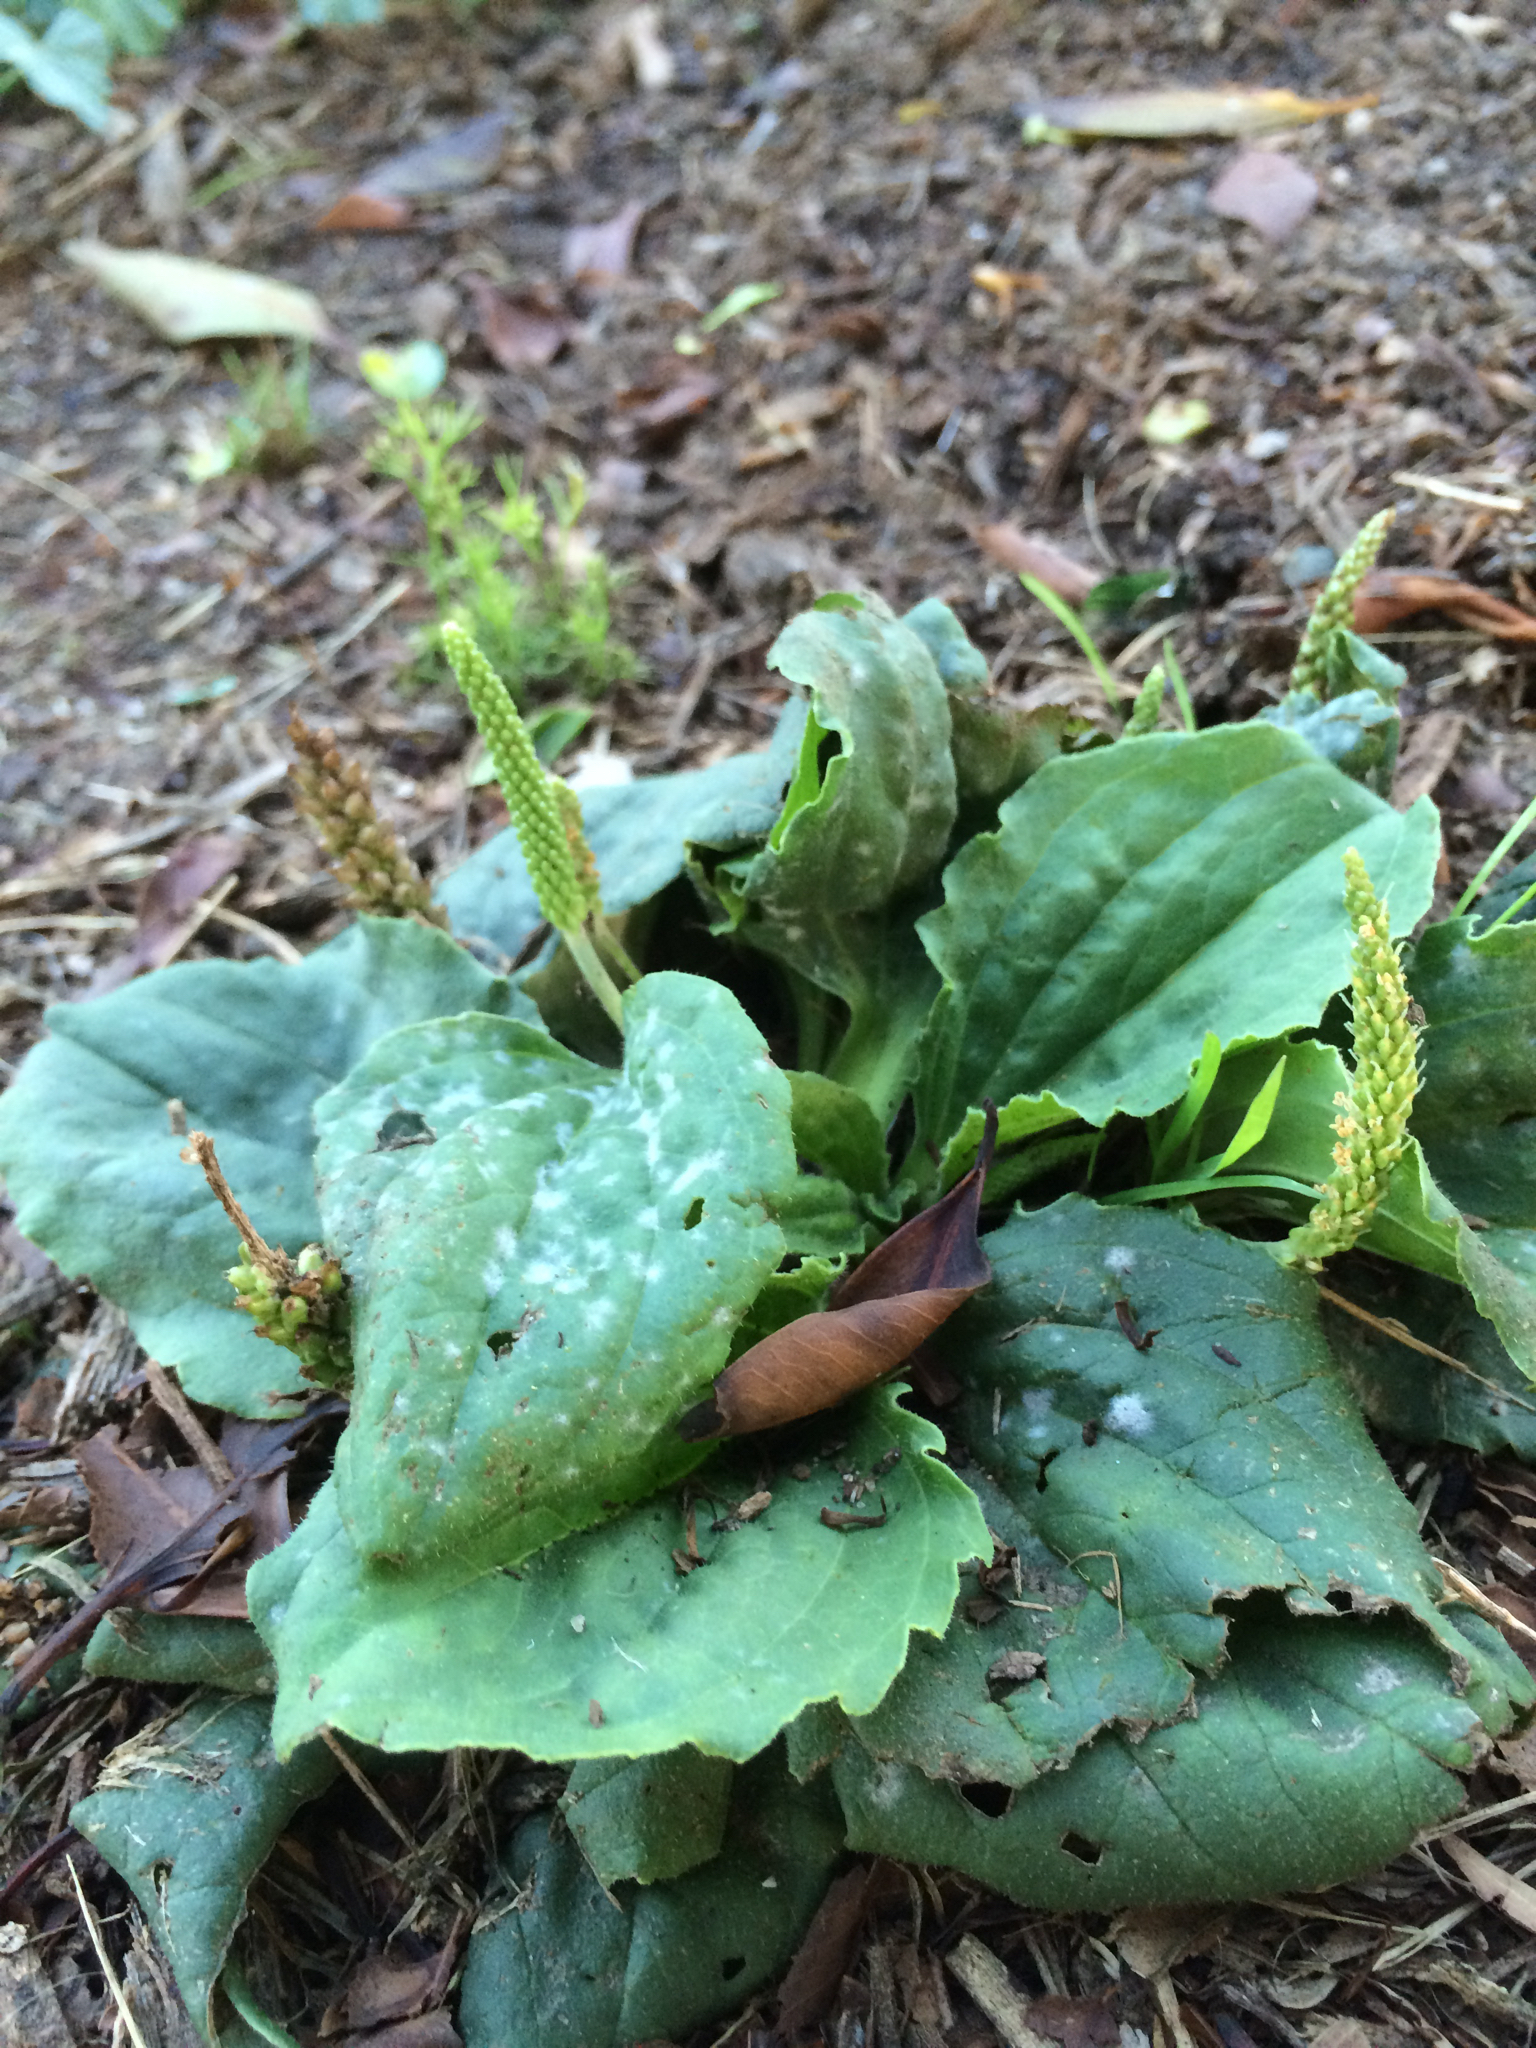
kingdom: Plantae
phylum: Tracheophyta
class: Magnoliopsida
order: Lamiales
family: Plantaginaceae
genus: Plantago
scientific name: Plantago major
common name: Common plantain
